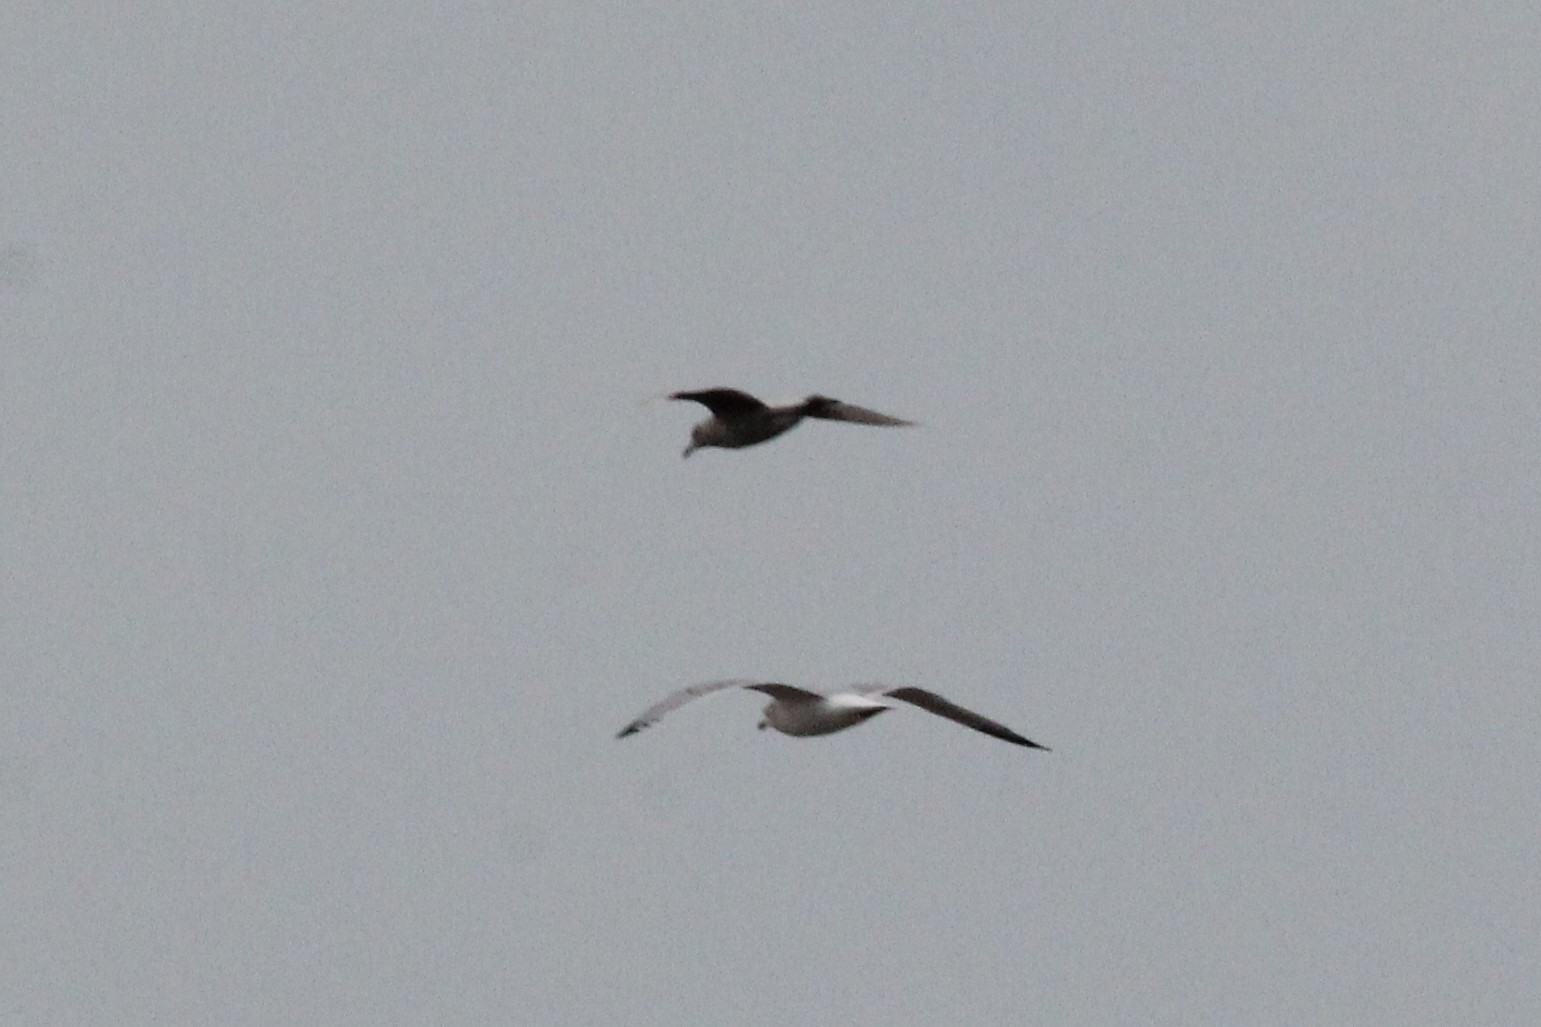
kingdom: Animalia
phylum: Chordata
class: Aves
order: Charadriiformes
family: Laridae
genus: Larus
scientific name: Larus glaucoides
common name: Iceland gull
